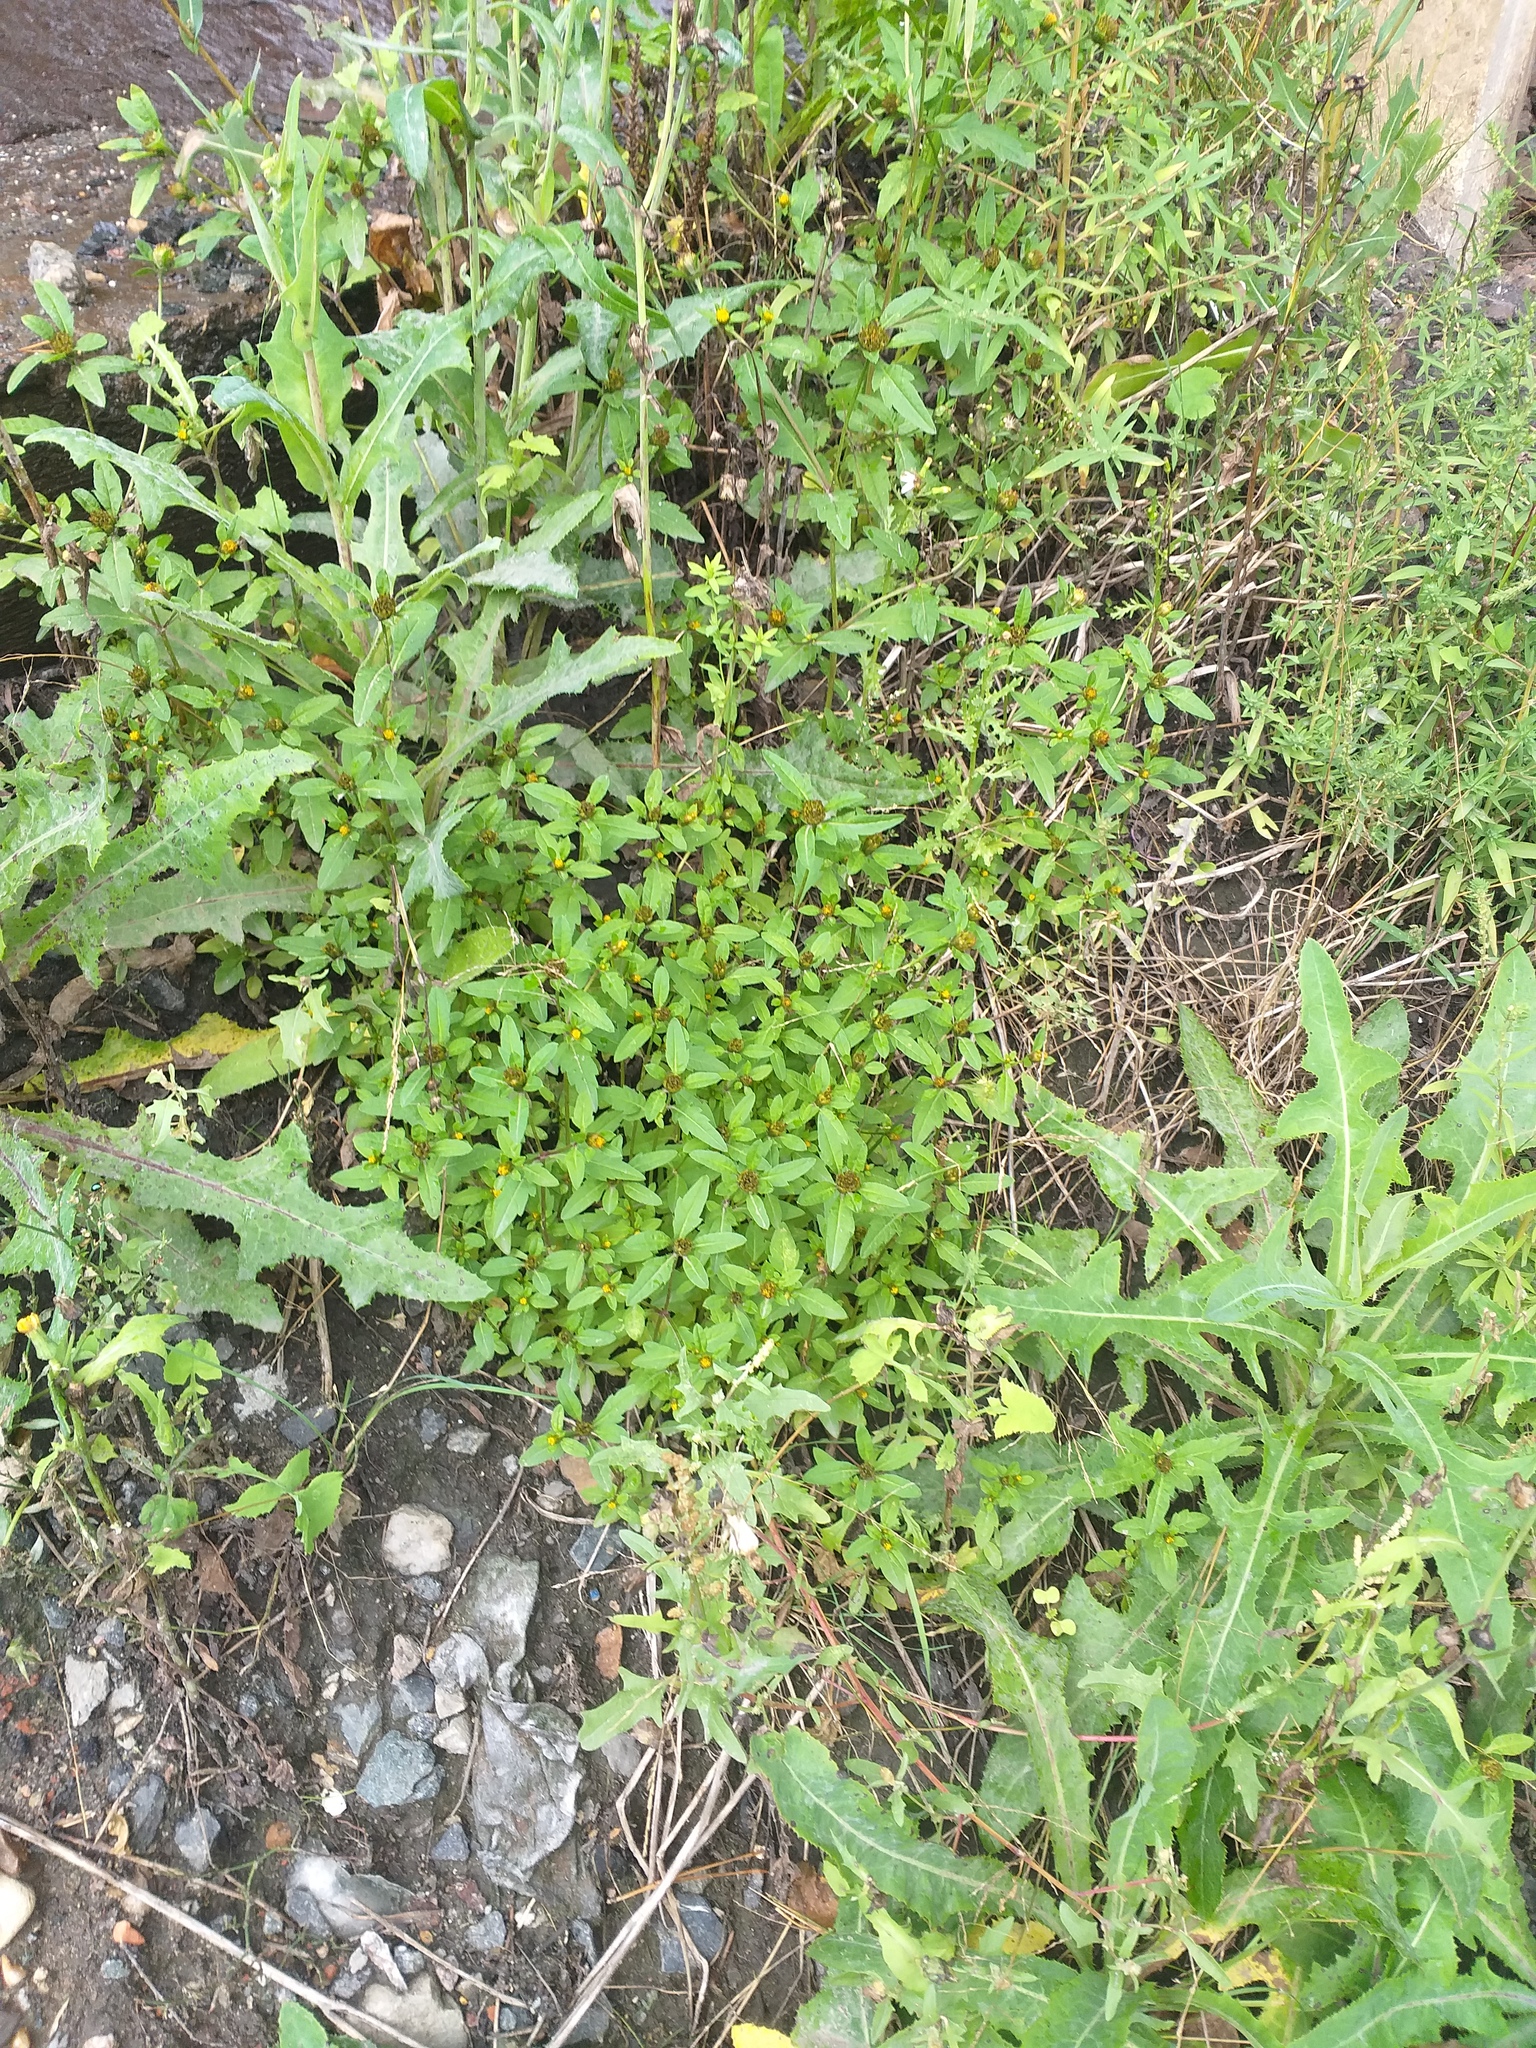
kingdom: Plantae
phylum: Tracheophyta
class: Magnoliopsida
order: Asterales
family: Asteraceae
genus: Bidens
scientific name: Bidens tripartita
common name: Trifid bur-marigold
